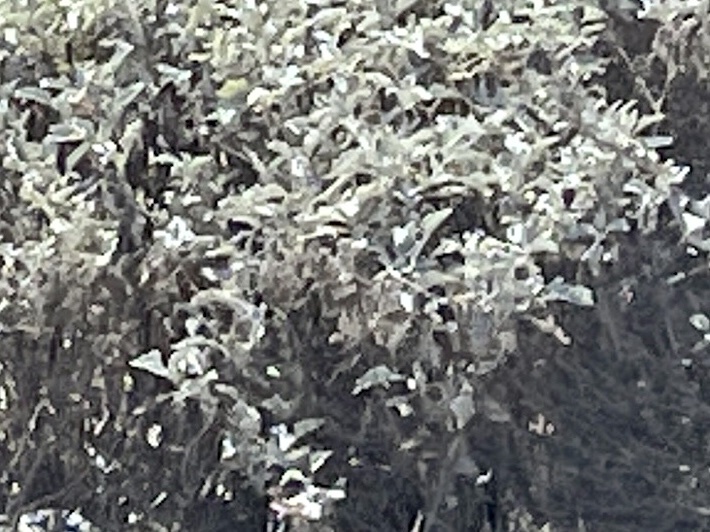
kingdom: Plantae
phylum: Tracheophyta
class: Magnoliopsida
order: Asterales
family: Asteraceae
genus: Encelia
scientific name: Encelia farinosa
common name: Brittlebush
